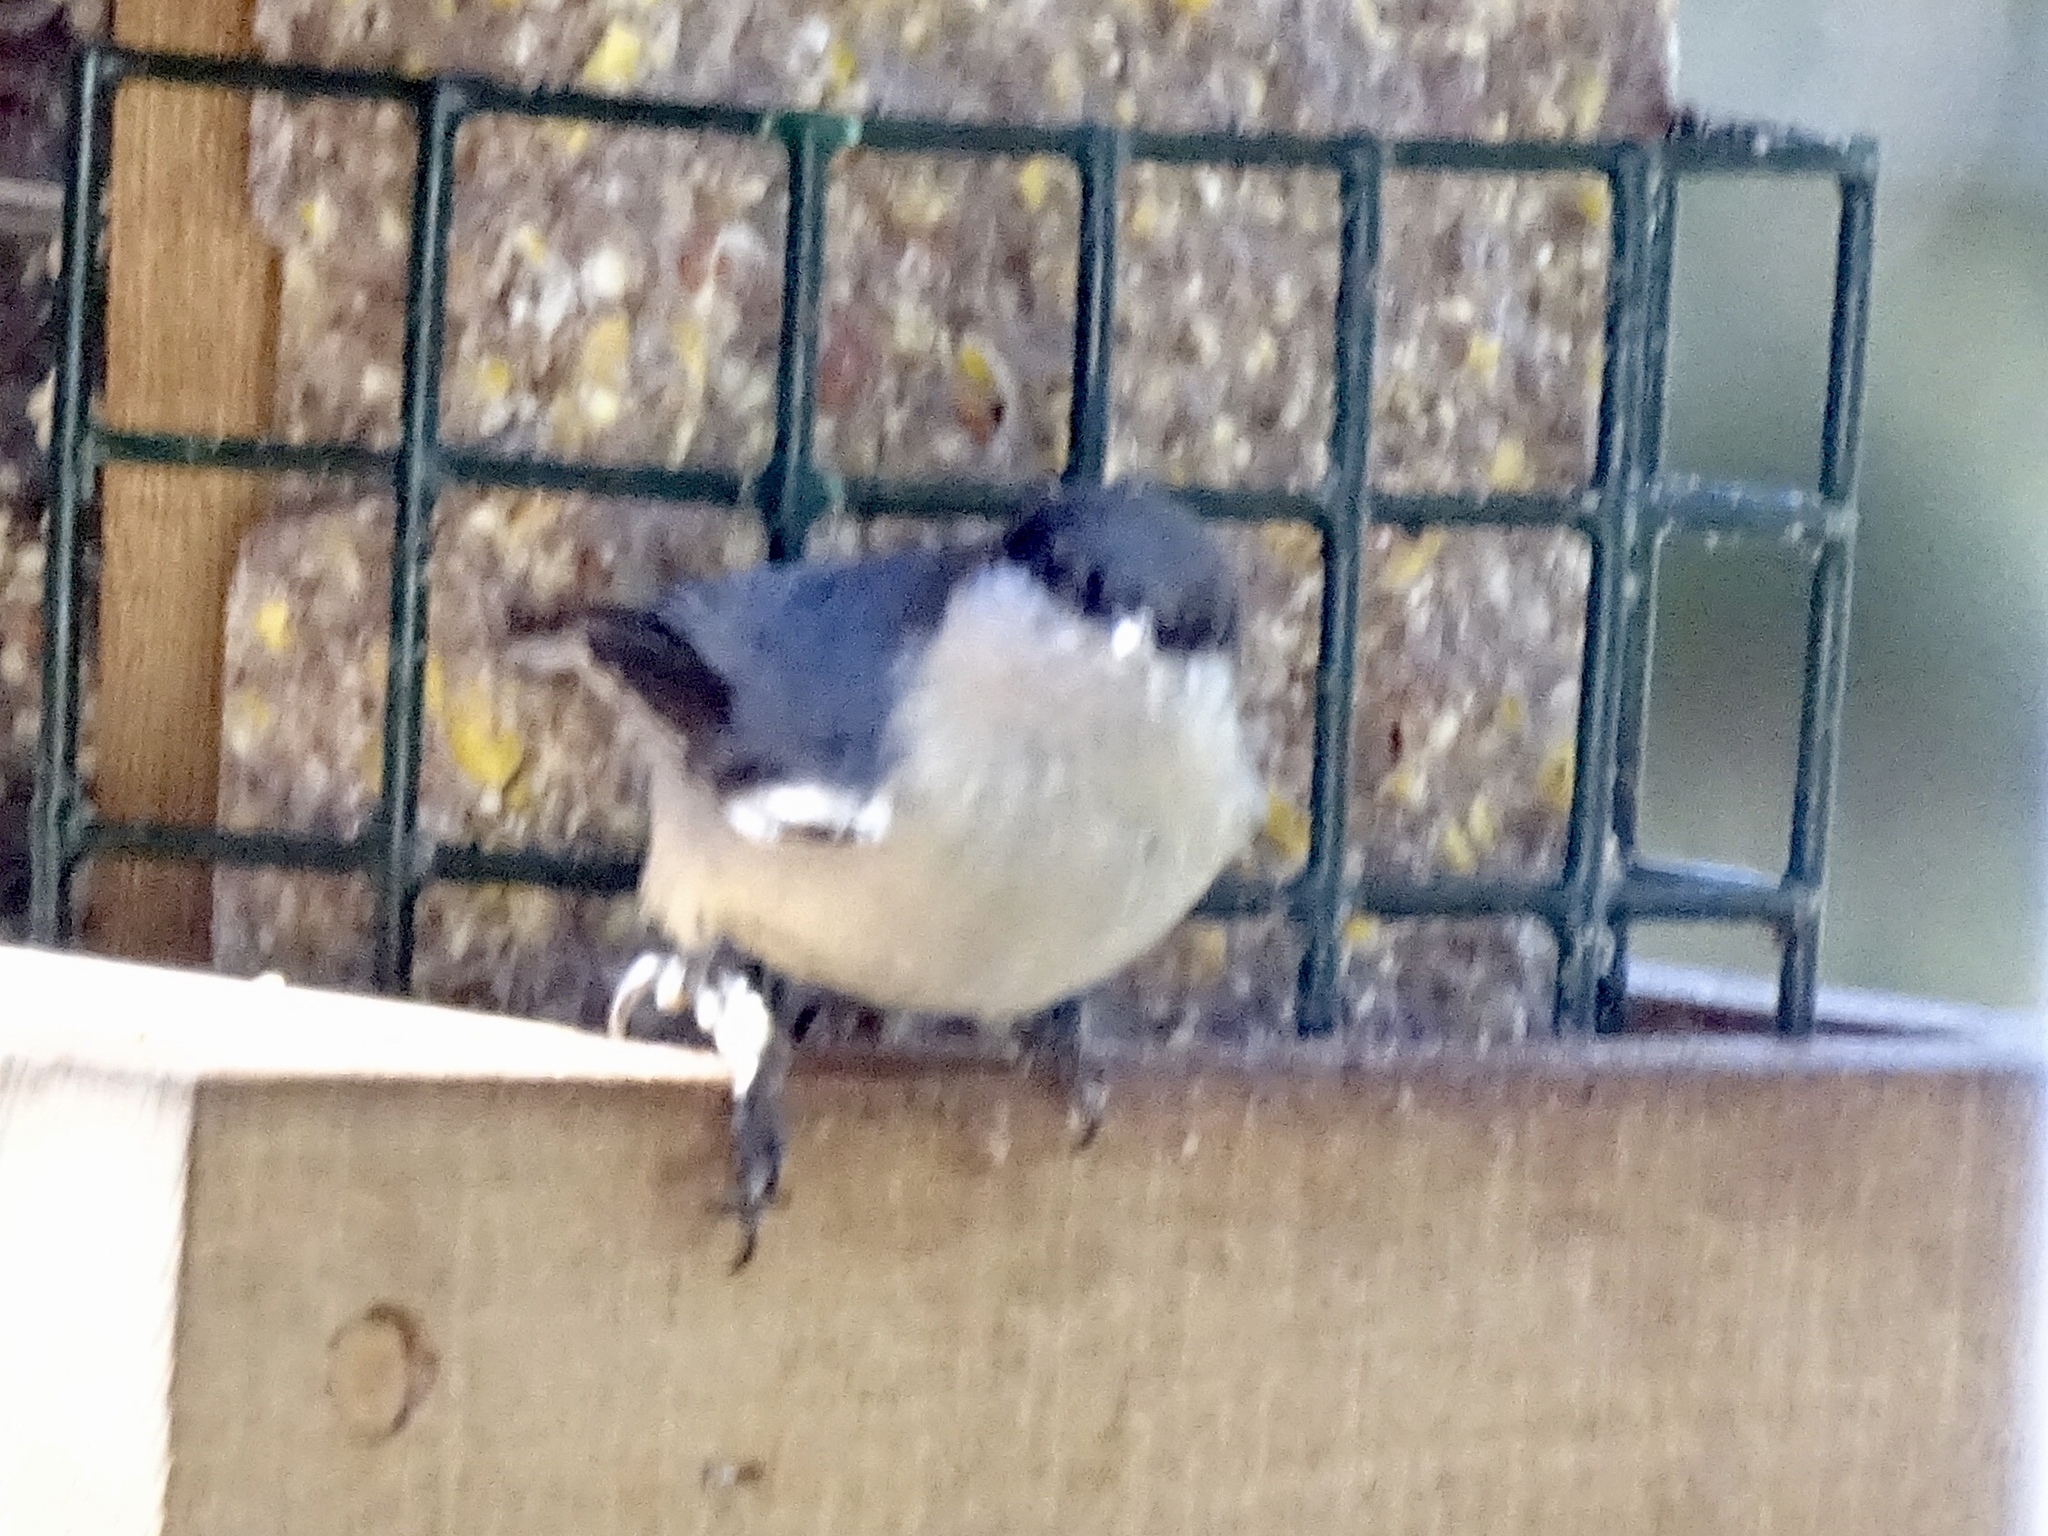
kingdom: Animalia
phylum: Chordata
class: Aves
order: Passeriformes
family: Sittidae
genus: Sitta
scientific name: Sitta pygmaea
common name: Pygmy nuthatch
